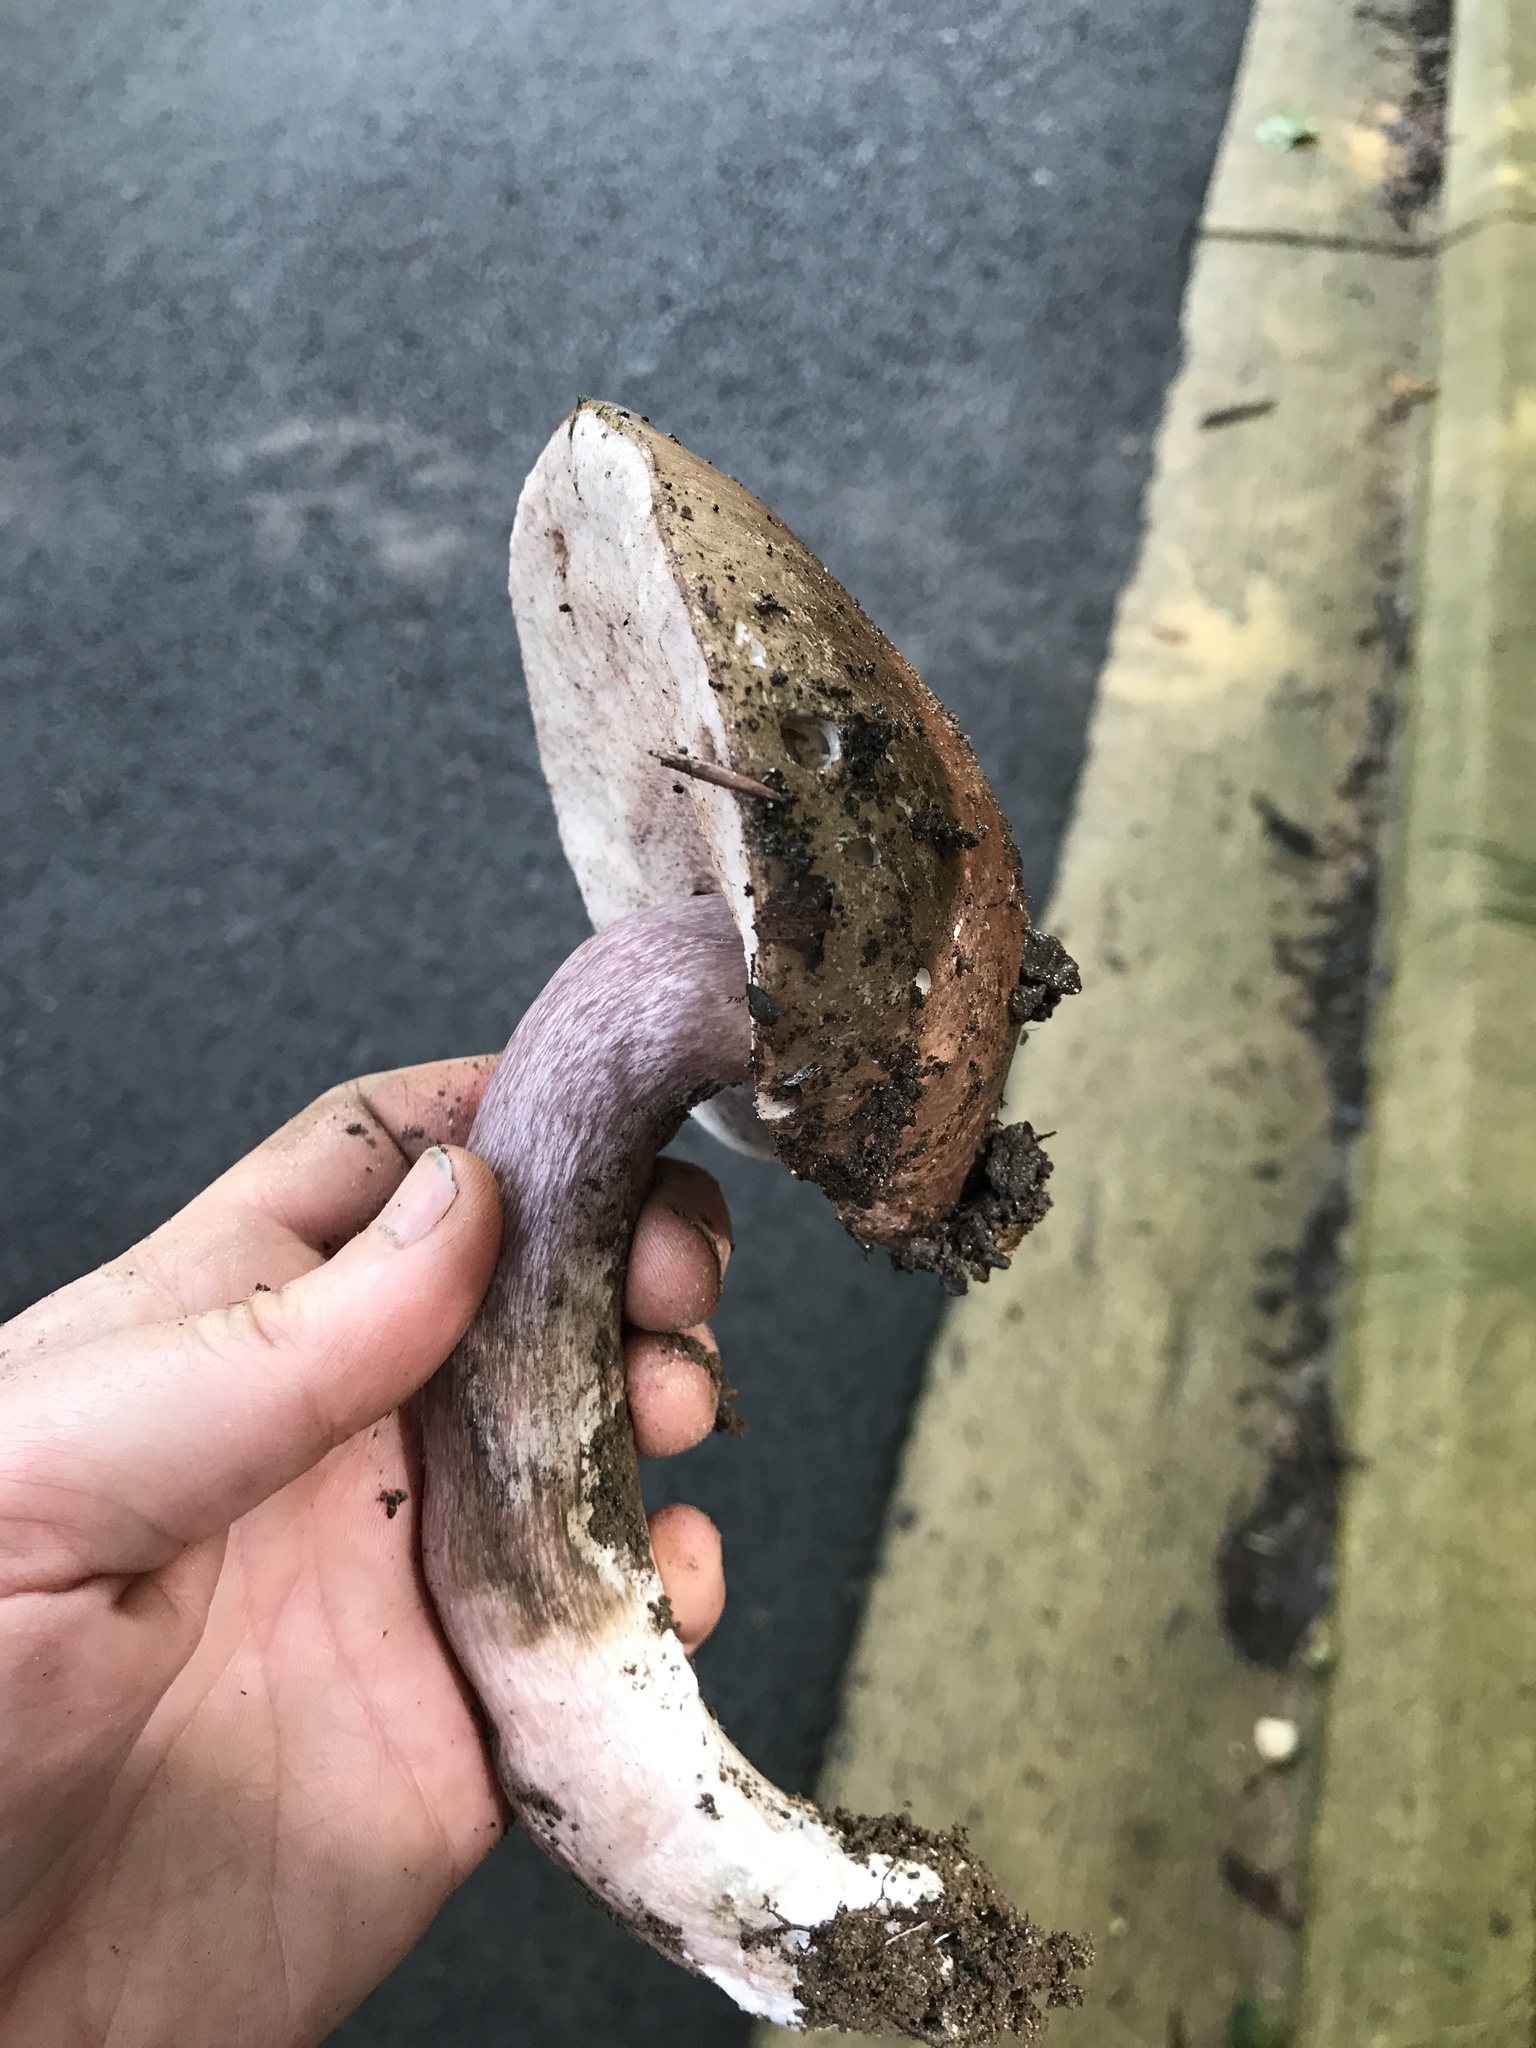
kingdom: Fungi
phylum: Basidiomycota
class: Agaricomycetes
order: Boletales
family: Boletaceae
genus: Tylopilus
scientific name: Tylopilus plumbeoviolaceus
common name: Violet gray bolete
